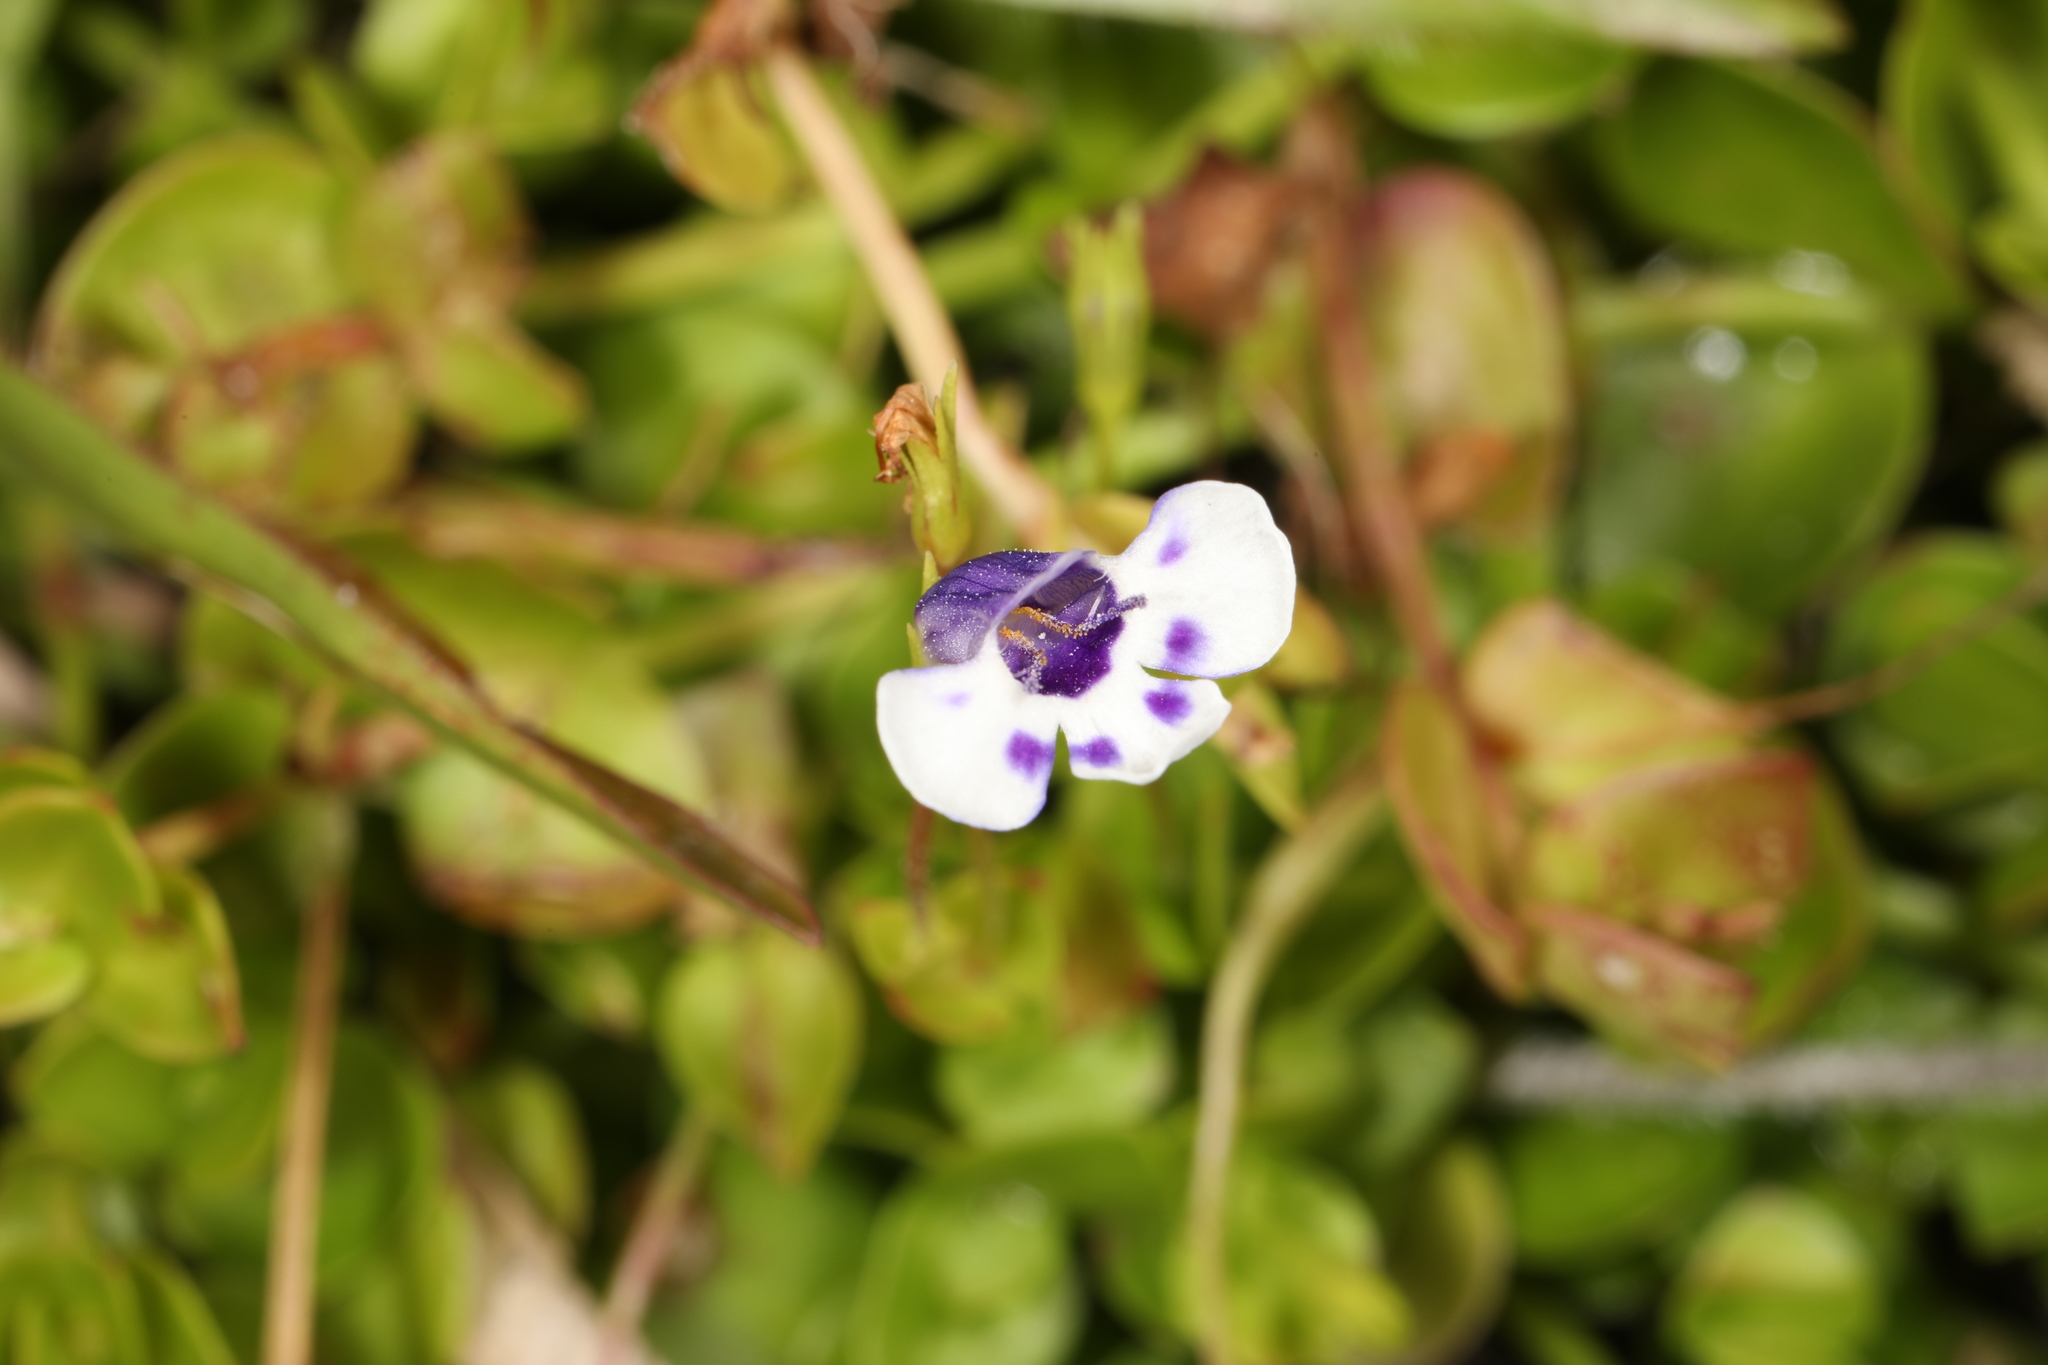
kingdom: Plantae
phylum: Tracheophyta
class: Magnoliopsida
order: Lamiales
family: Linderniaceae
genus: Lindernia
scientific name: Lindernia grandiflora
